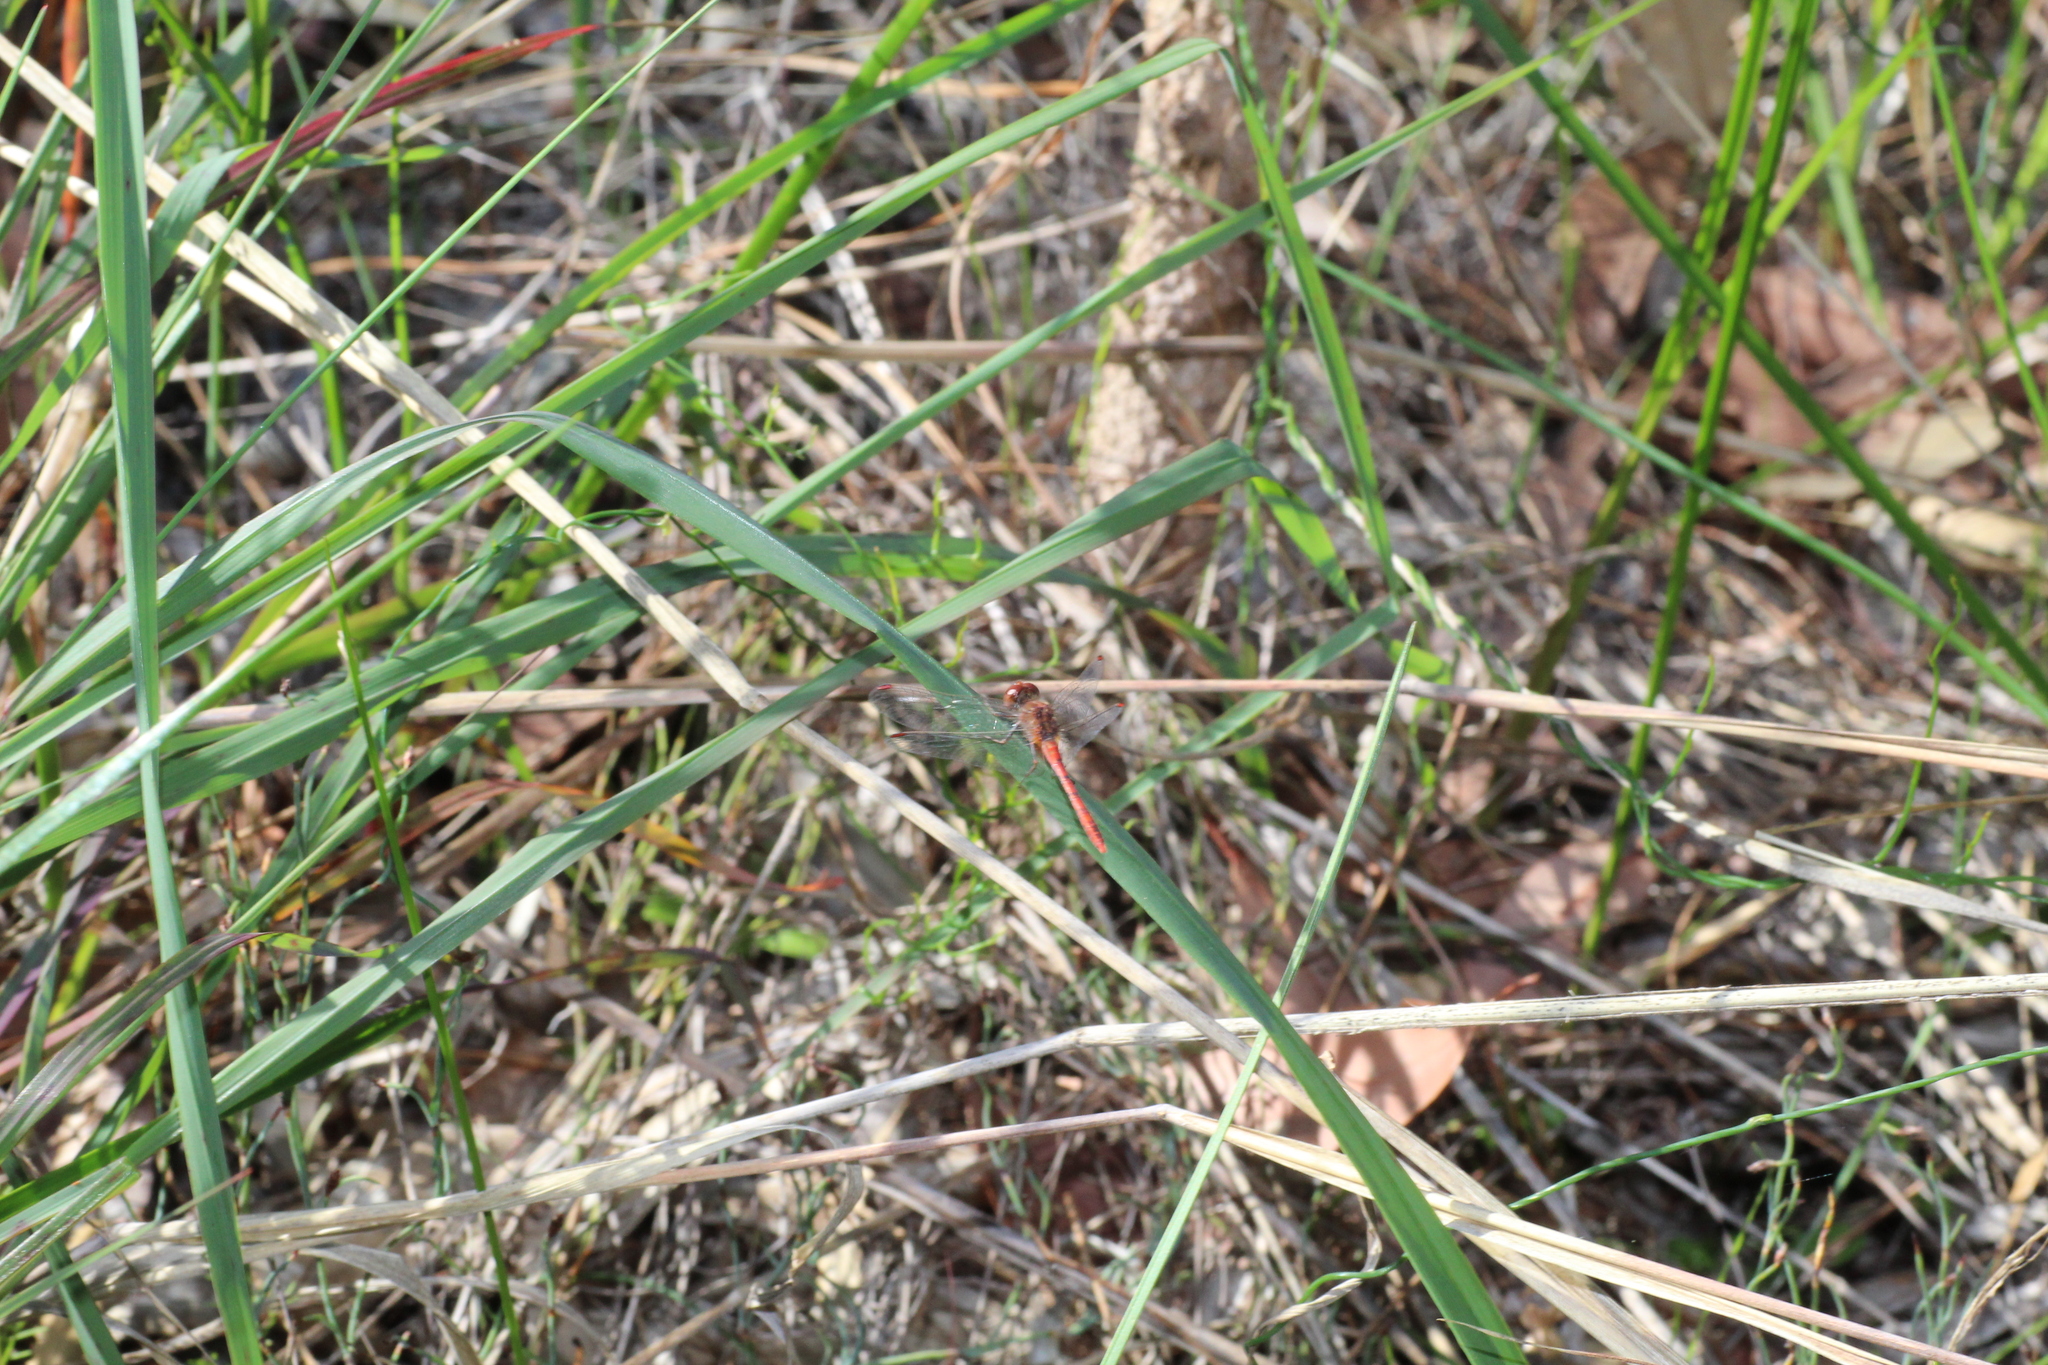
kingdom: Animalia
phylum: Arthropoda
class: Insecta
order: Odonata
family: Libellulidae
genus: Diplacodes
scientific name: Diplacodes bipunctata
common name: Red percher dragonfly
